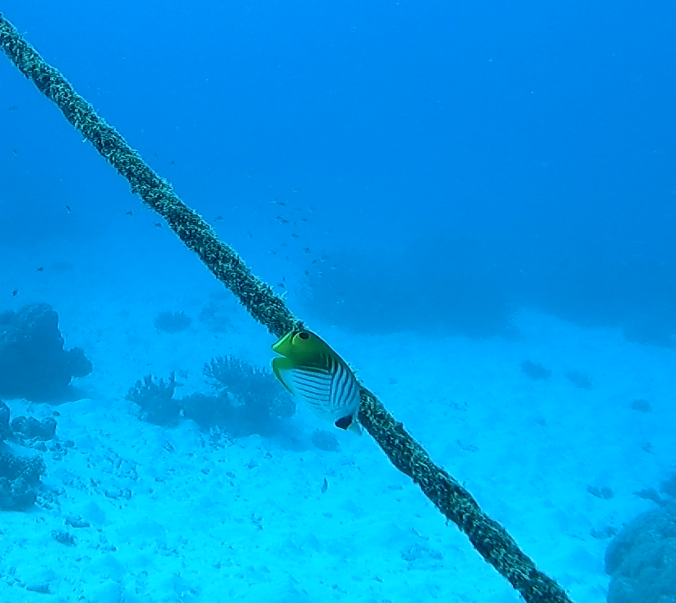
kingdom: Animalia
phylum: Chordata
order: Perciformes
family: Chaetodontidae
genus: Chaetodon
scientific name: Chaetodon auriga
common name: Threadfin butterflyfish
